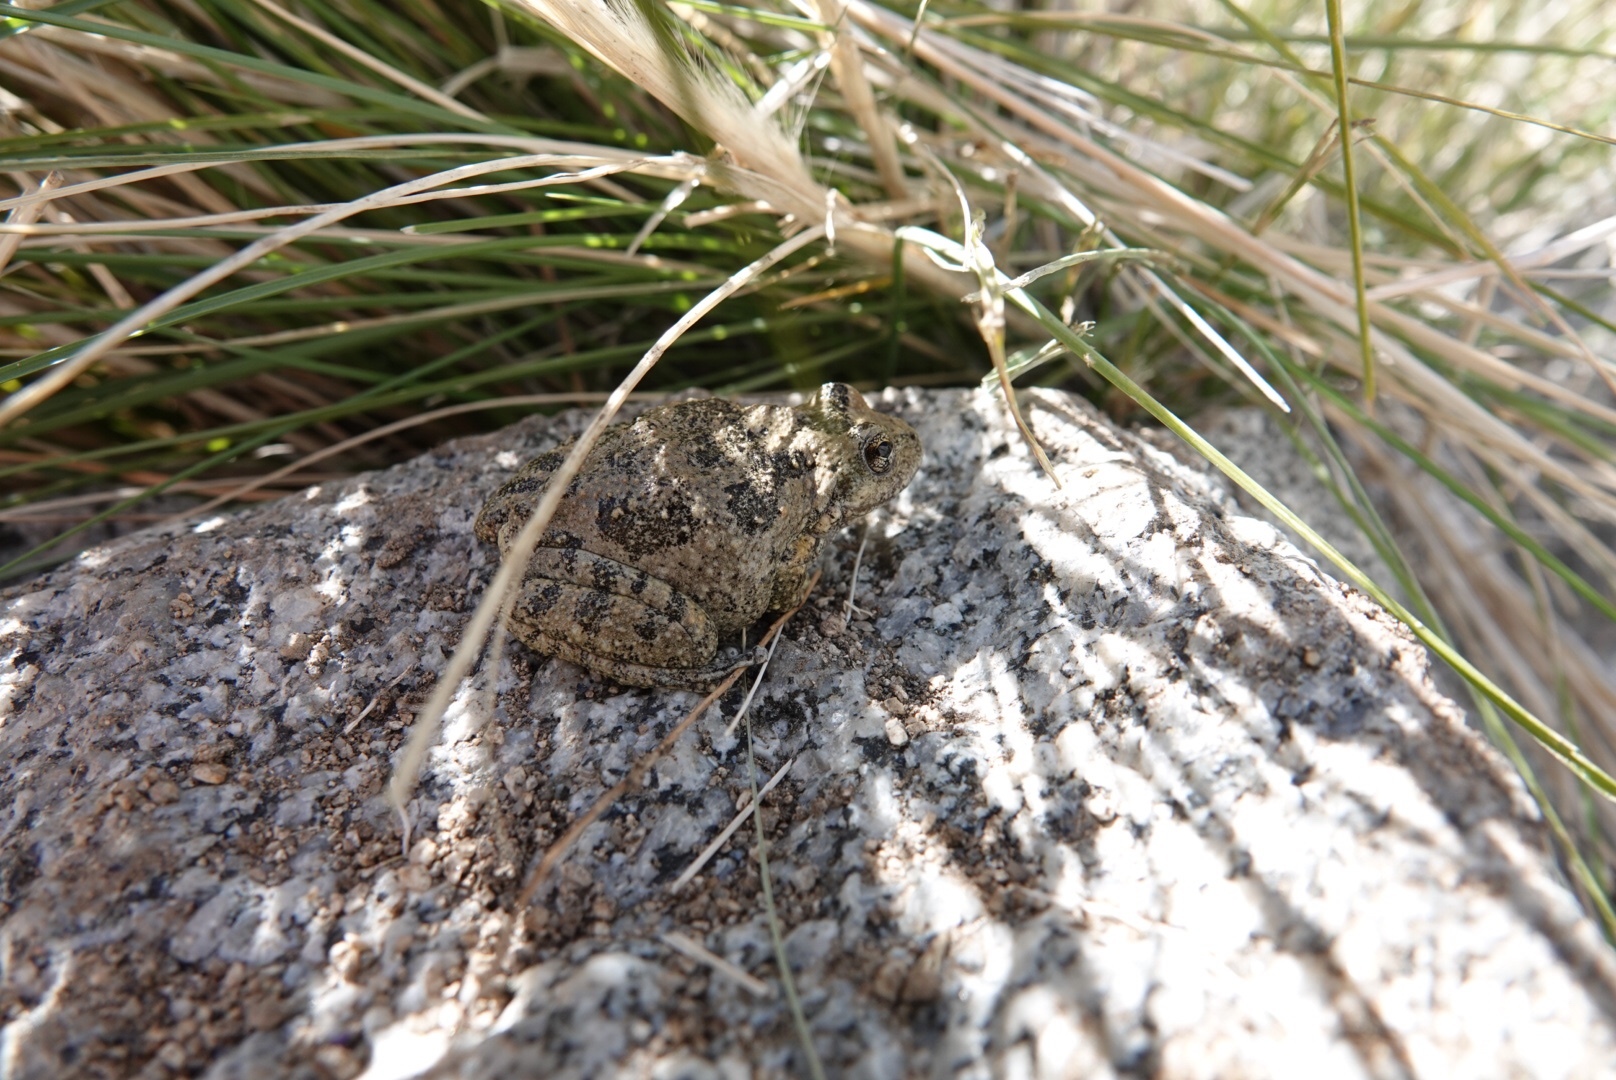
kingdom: Animalia
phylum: Chordata
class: Amphibia
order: Anura
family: Hylidae
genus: Pseudacris
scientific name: Pseudacris cadaverina
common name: California chorus frog
